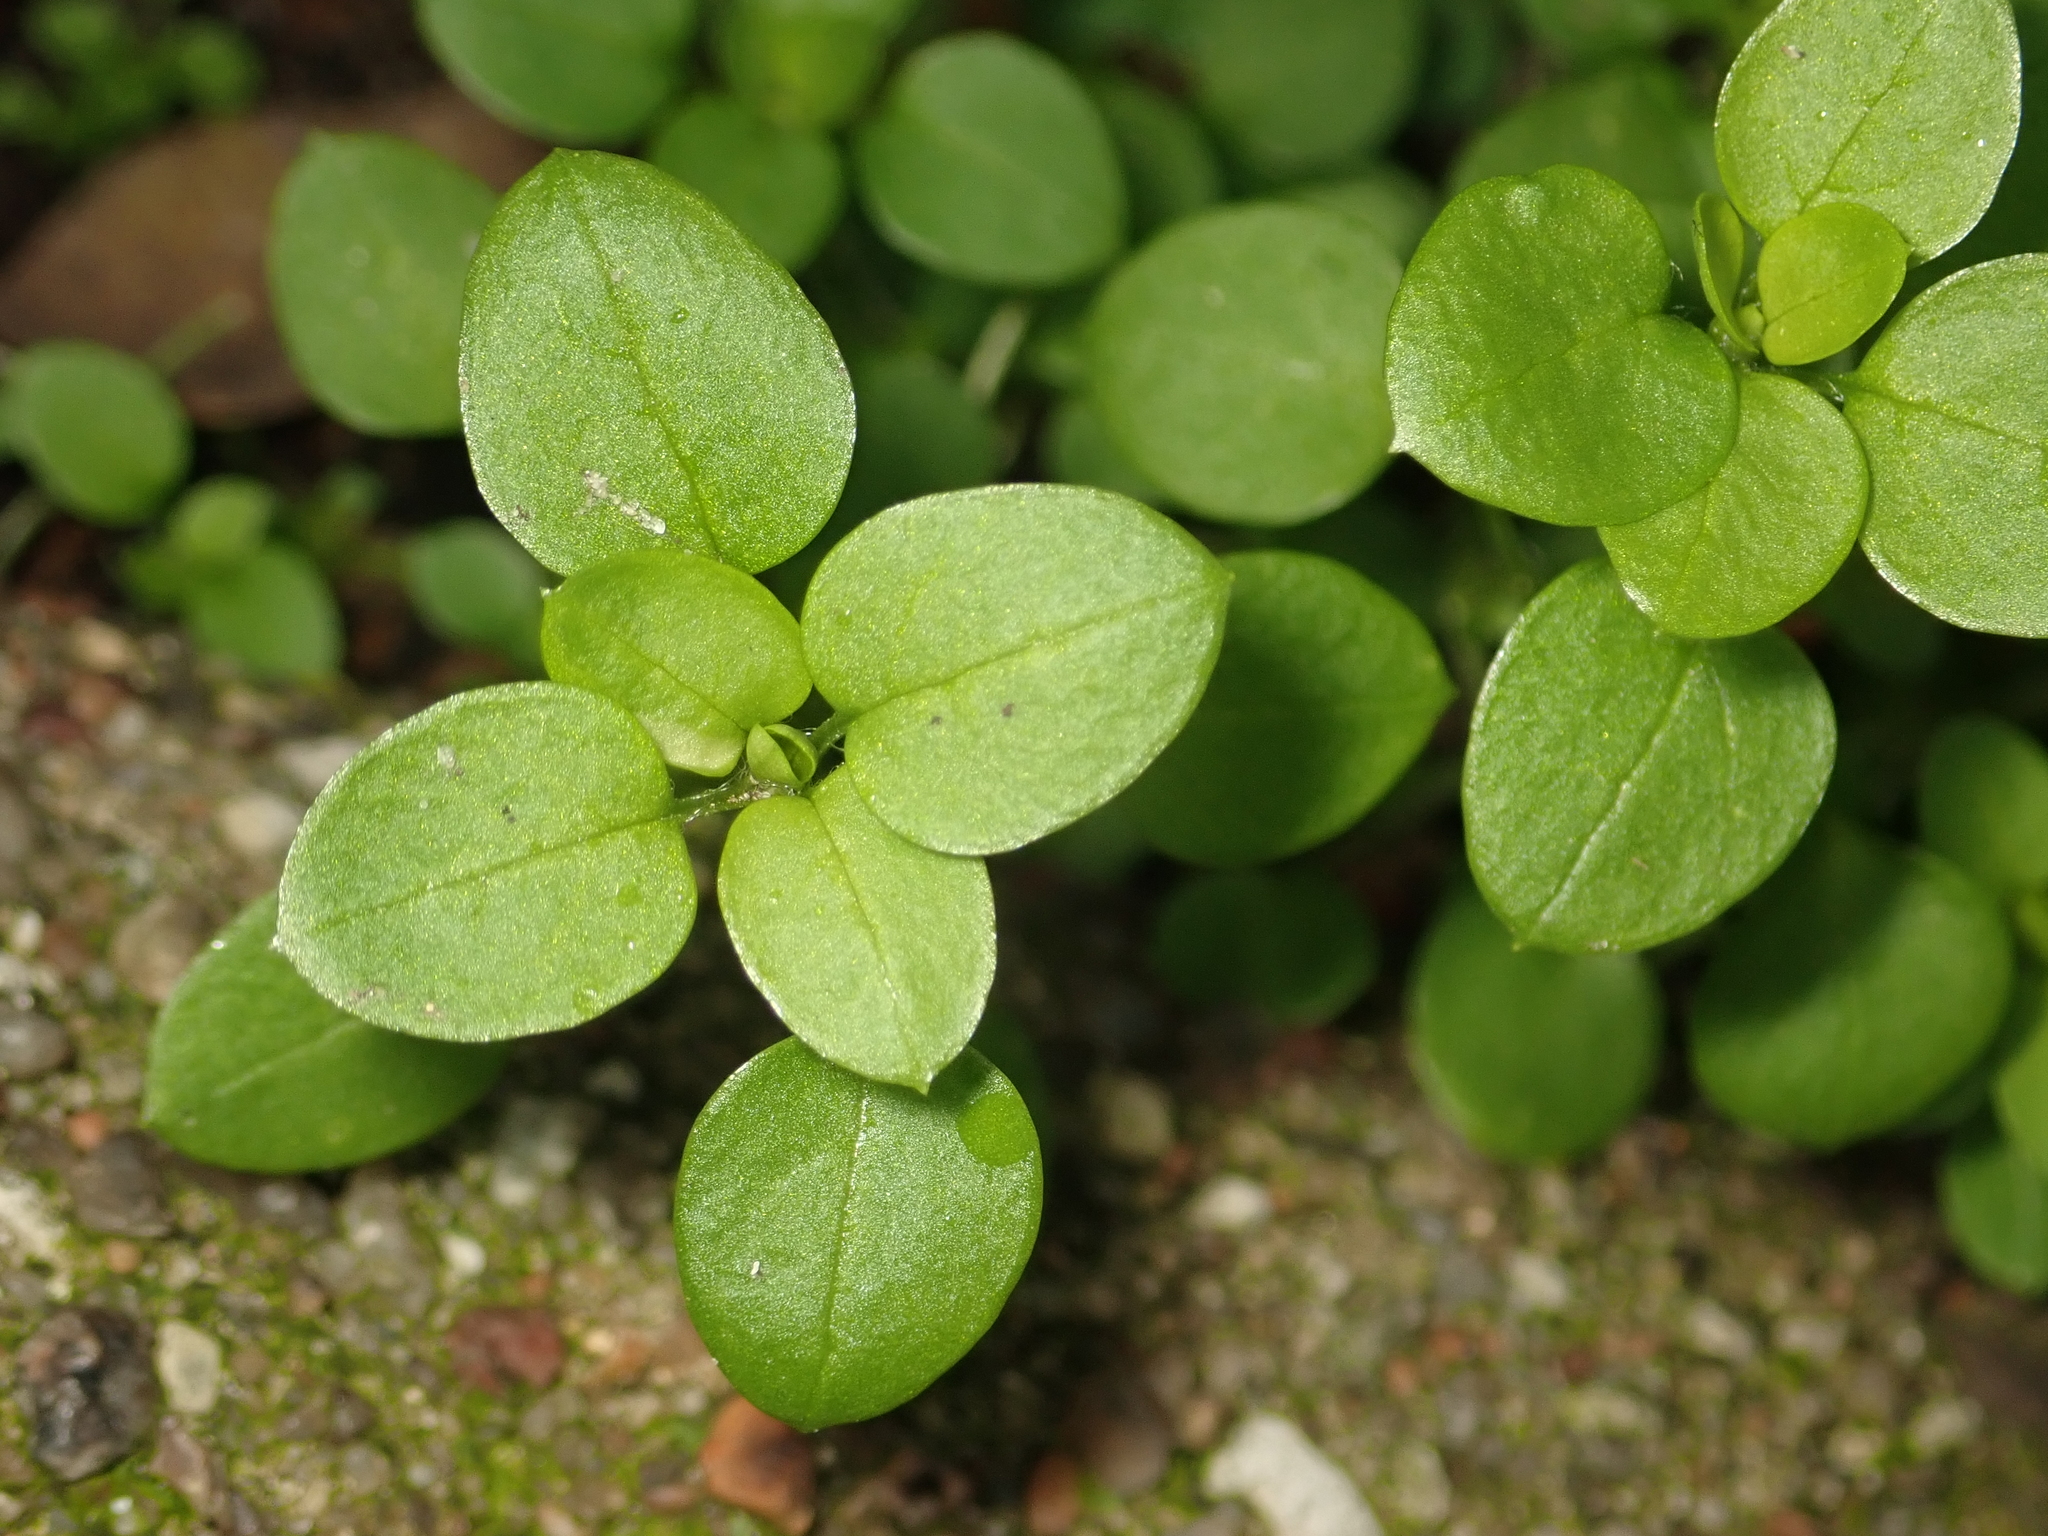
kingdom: Plantae
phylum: Tracheophyta
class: Magnoliopsida
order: Caryophyllales
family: Caryophyllaceae
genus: Stellaria
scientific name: Stellaria media
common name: Common chickweed
